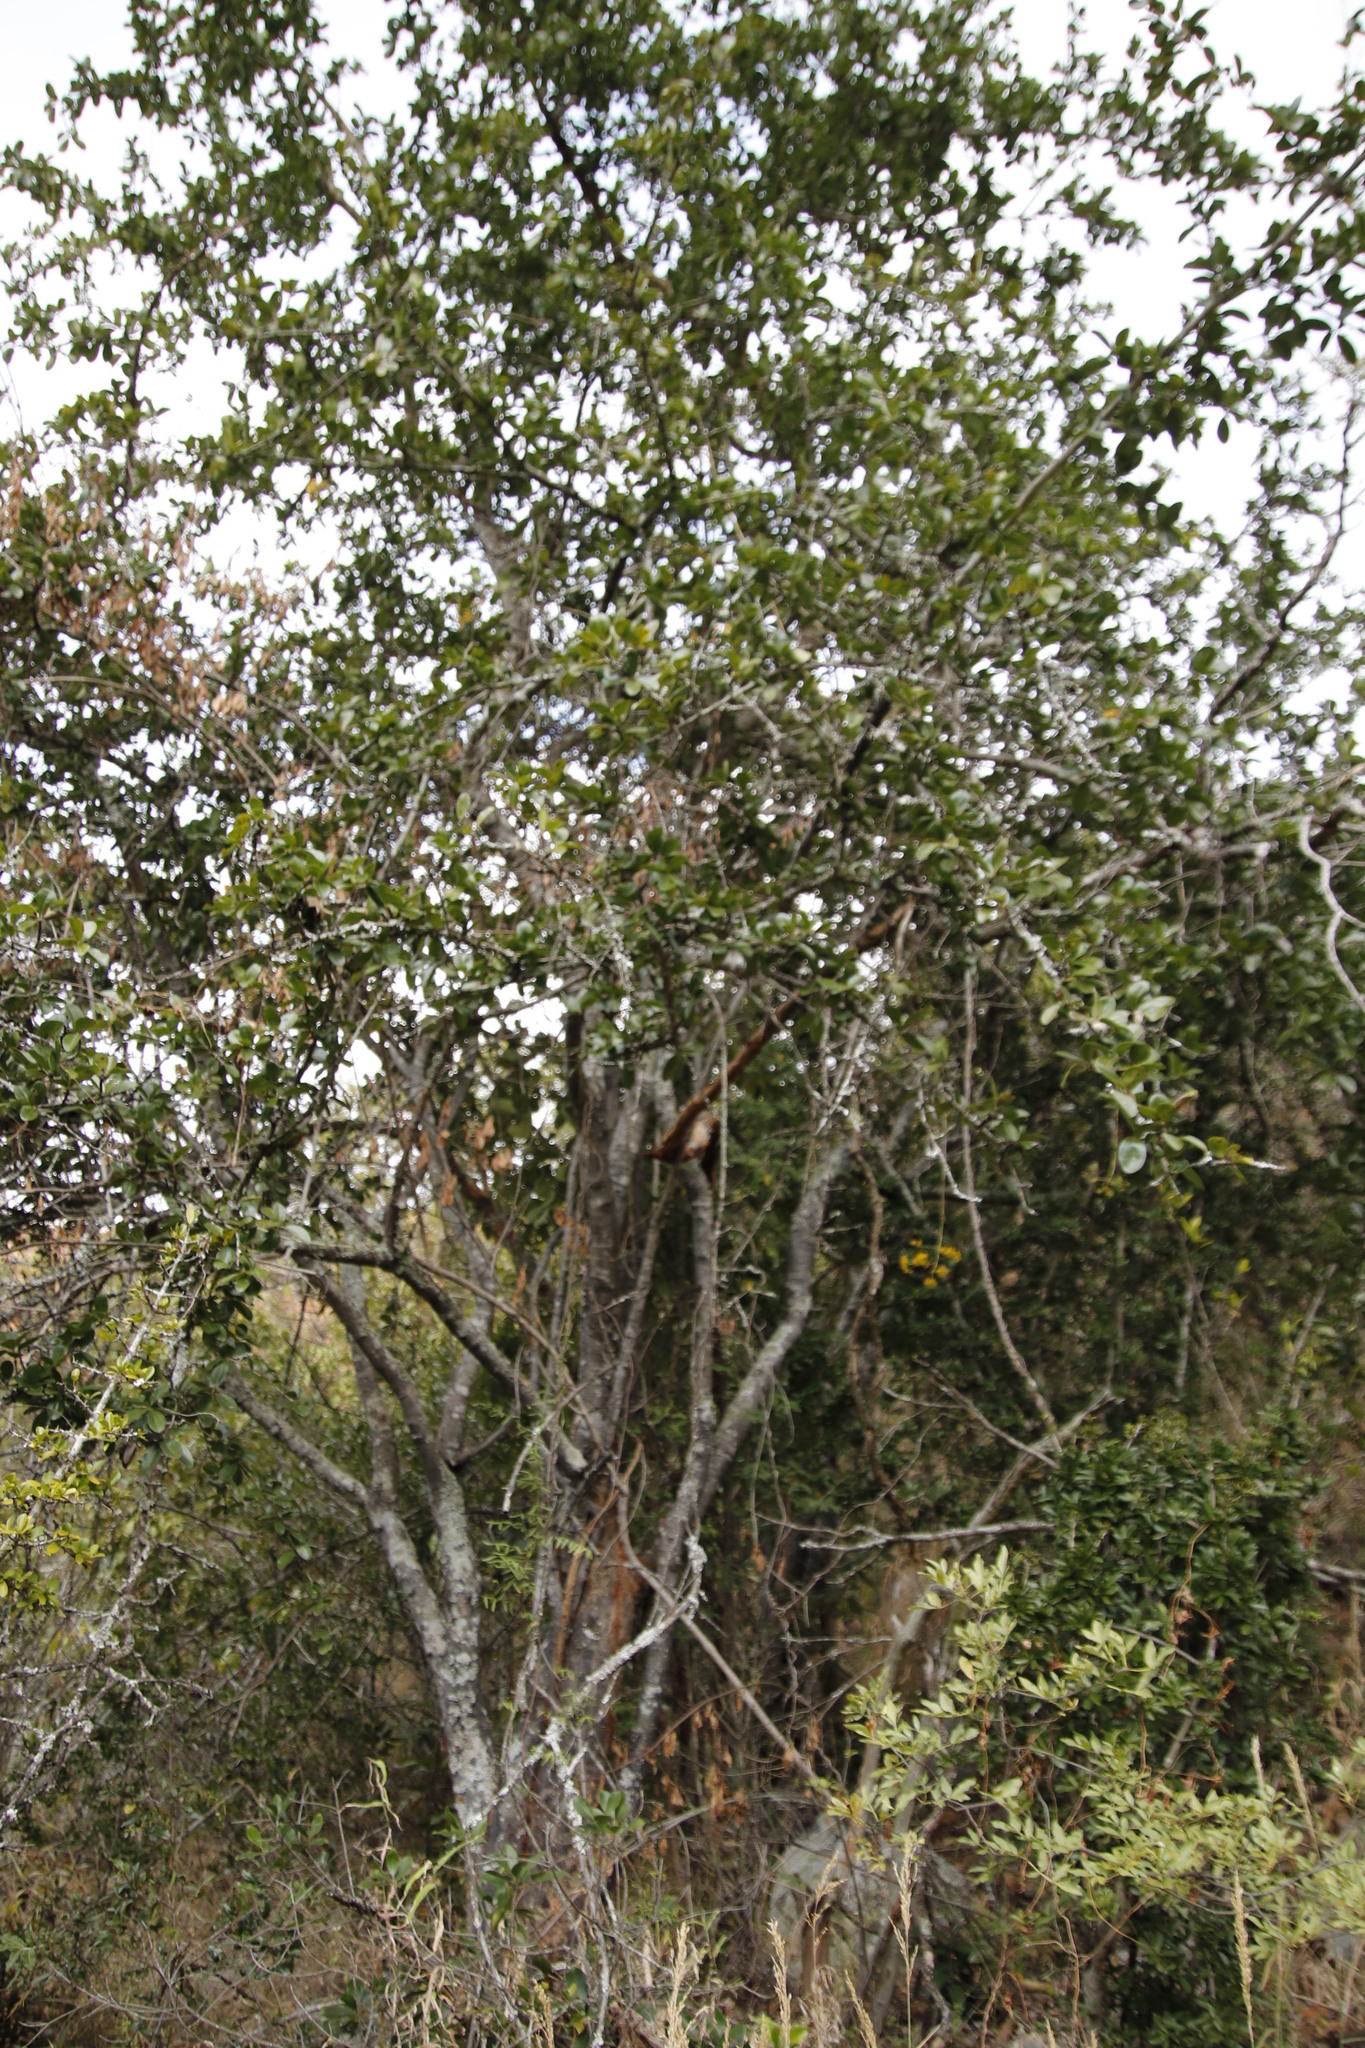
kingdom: Plantae
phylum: Tracheophyta
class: Magnoliopsida
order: Gentianales
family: Loganiaceae
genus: Strychnos
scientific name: Strychnos madagascariensis
